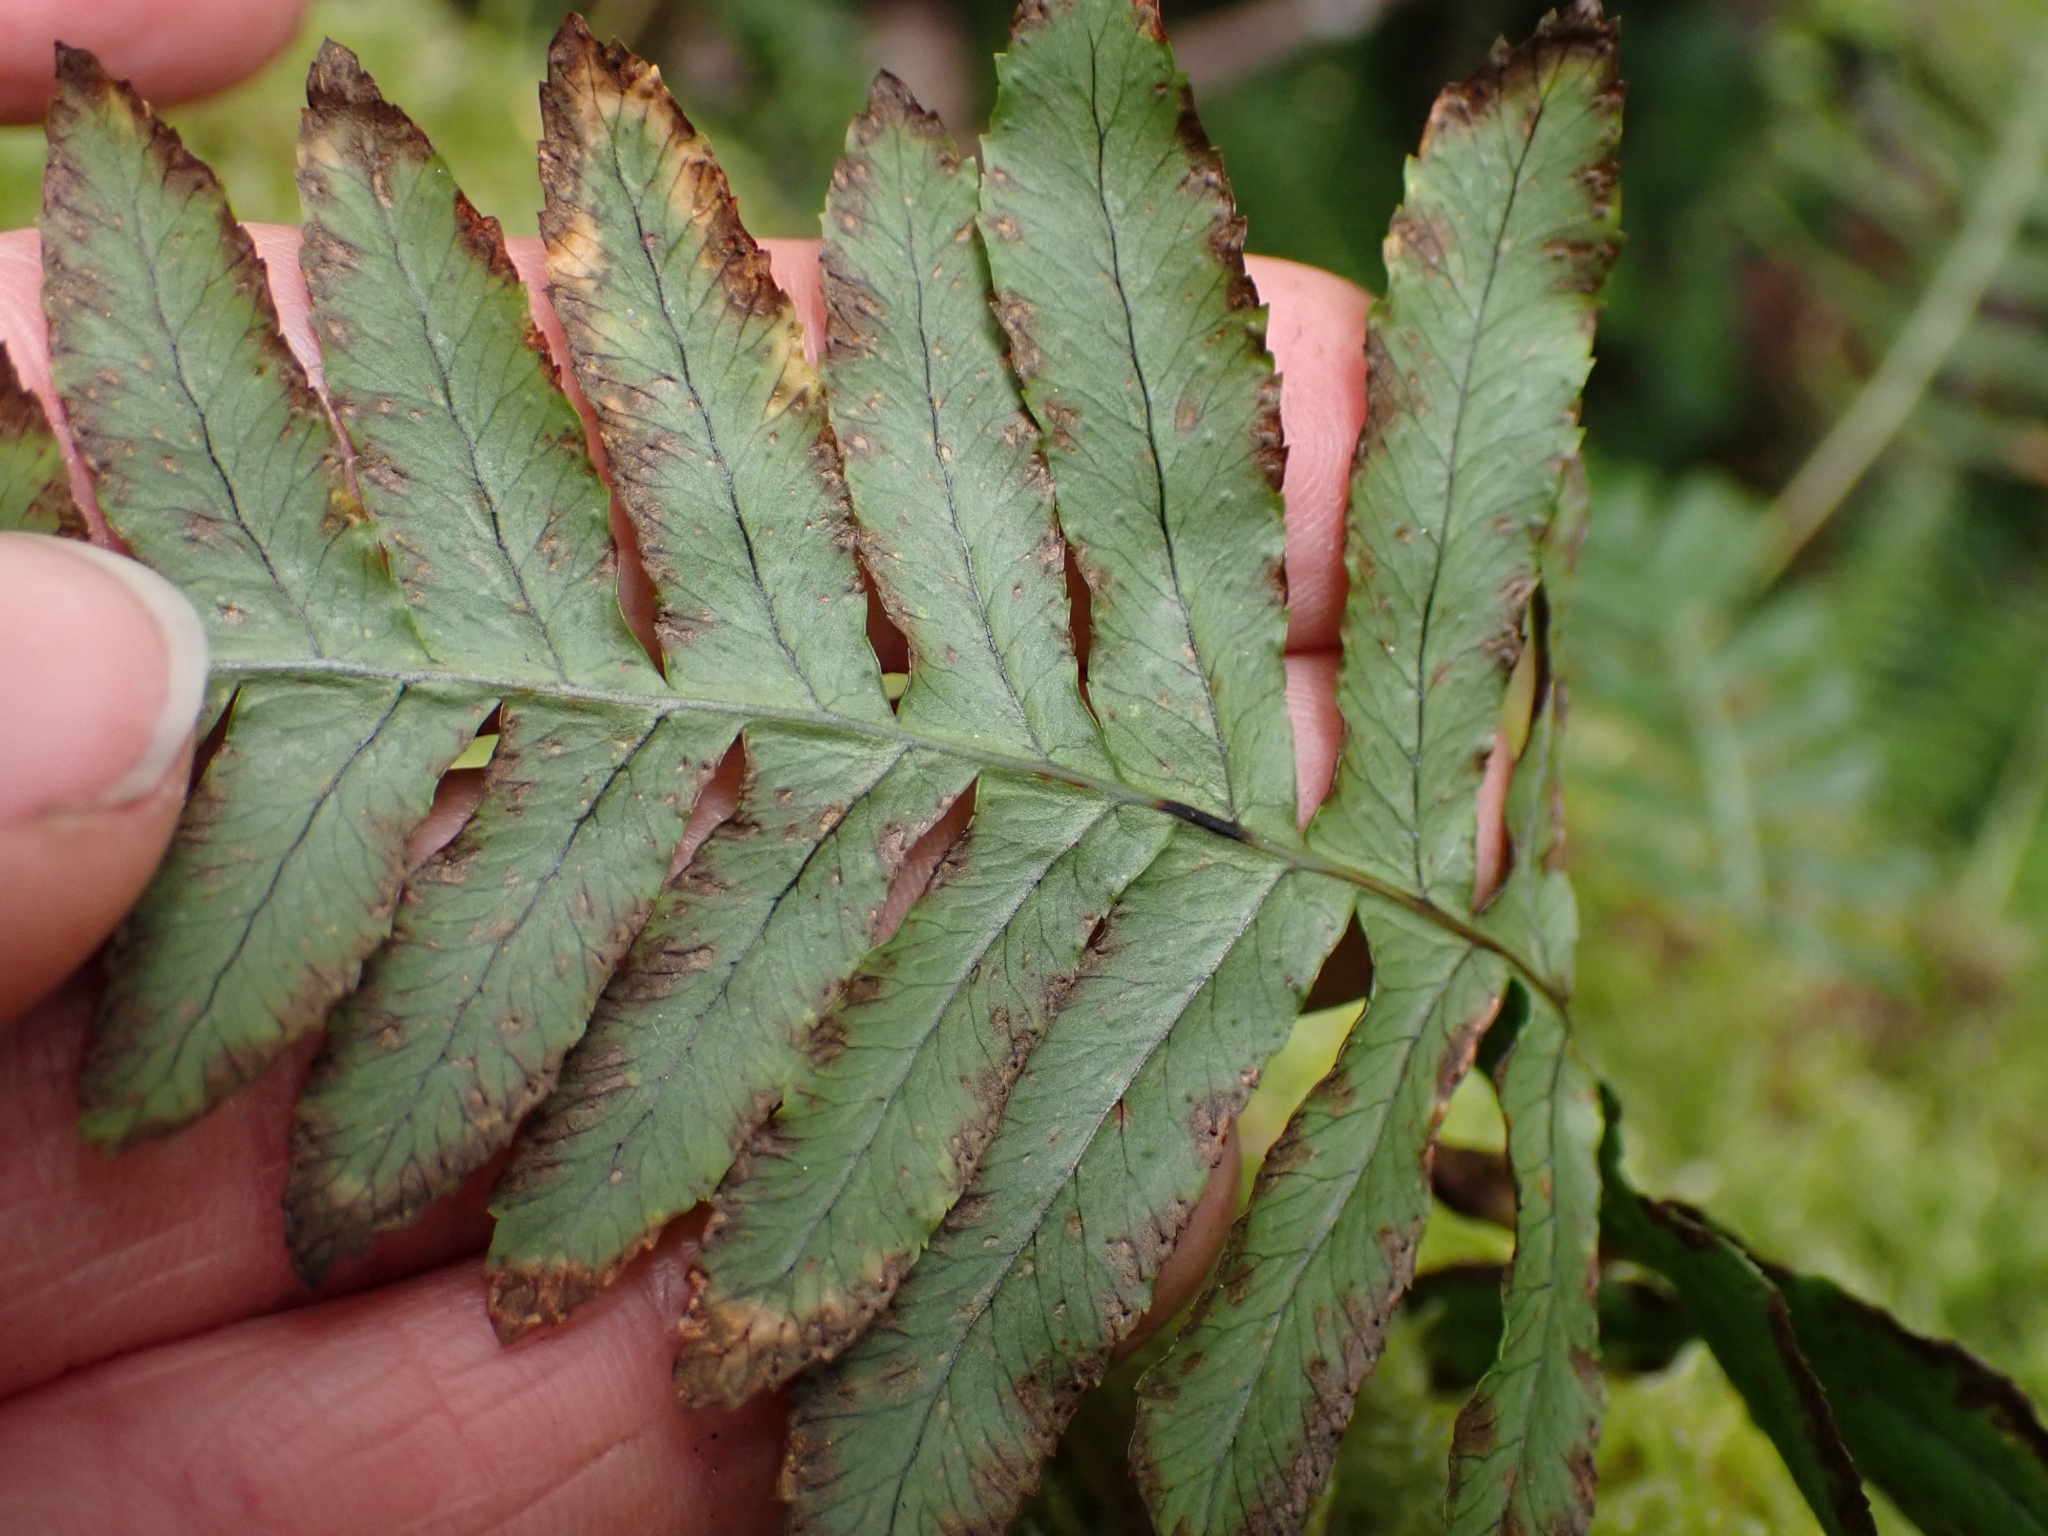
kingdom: Plantae
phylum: Tracheophyta
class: Polypodiopsida
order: Polypodiales
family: Polypodiaceae
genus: Polypodium
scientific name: Polypodium glycyrrhiza
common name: Licorice fern
